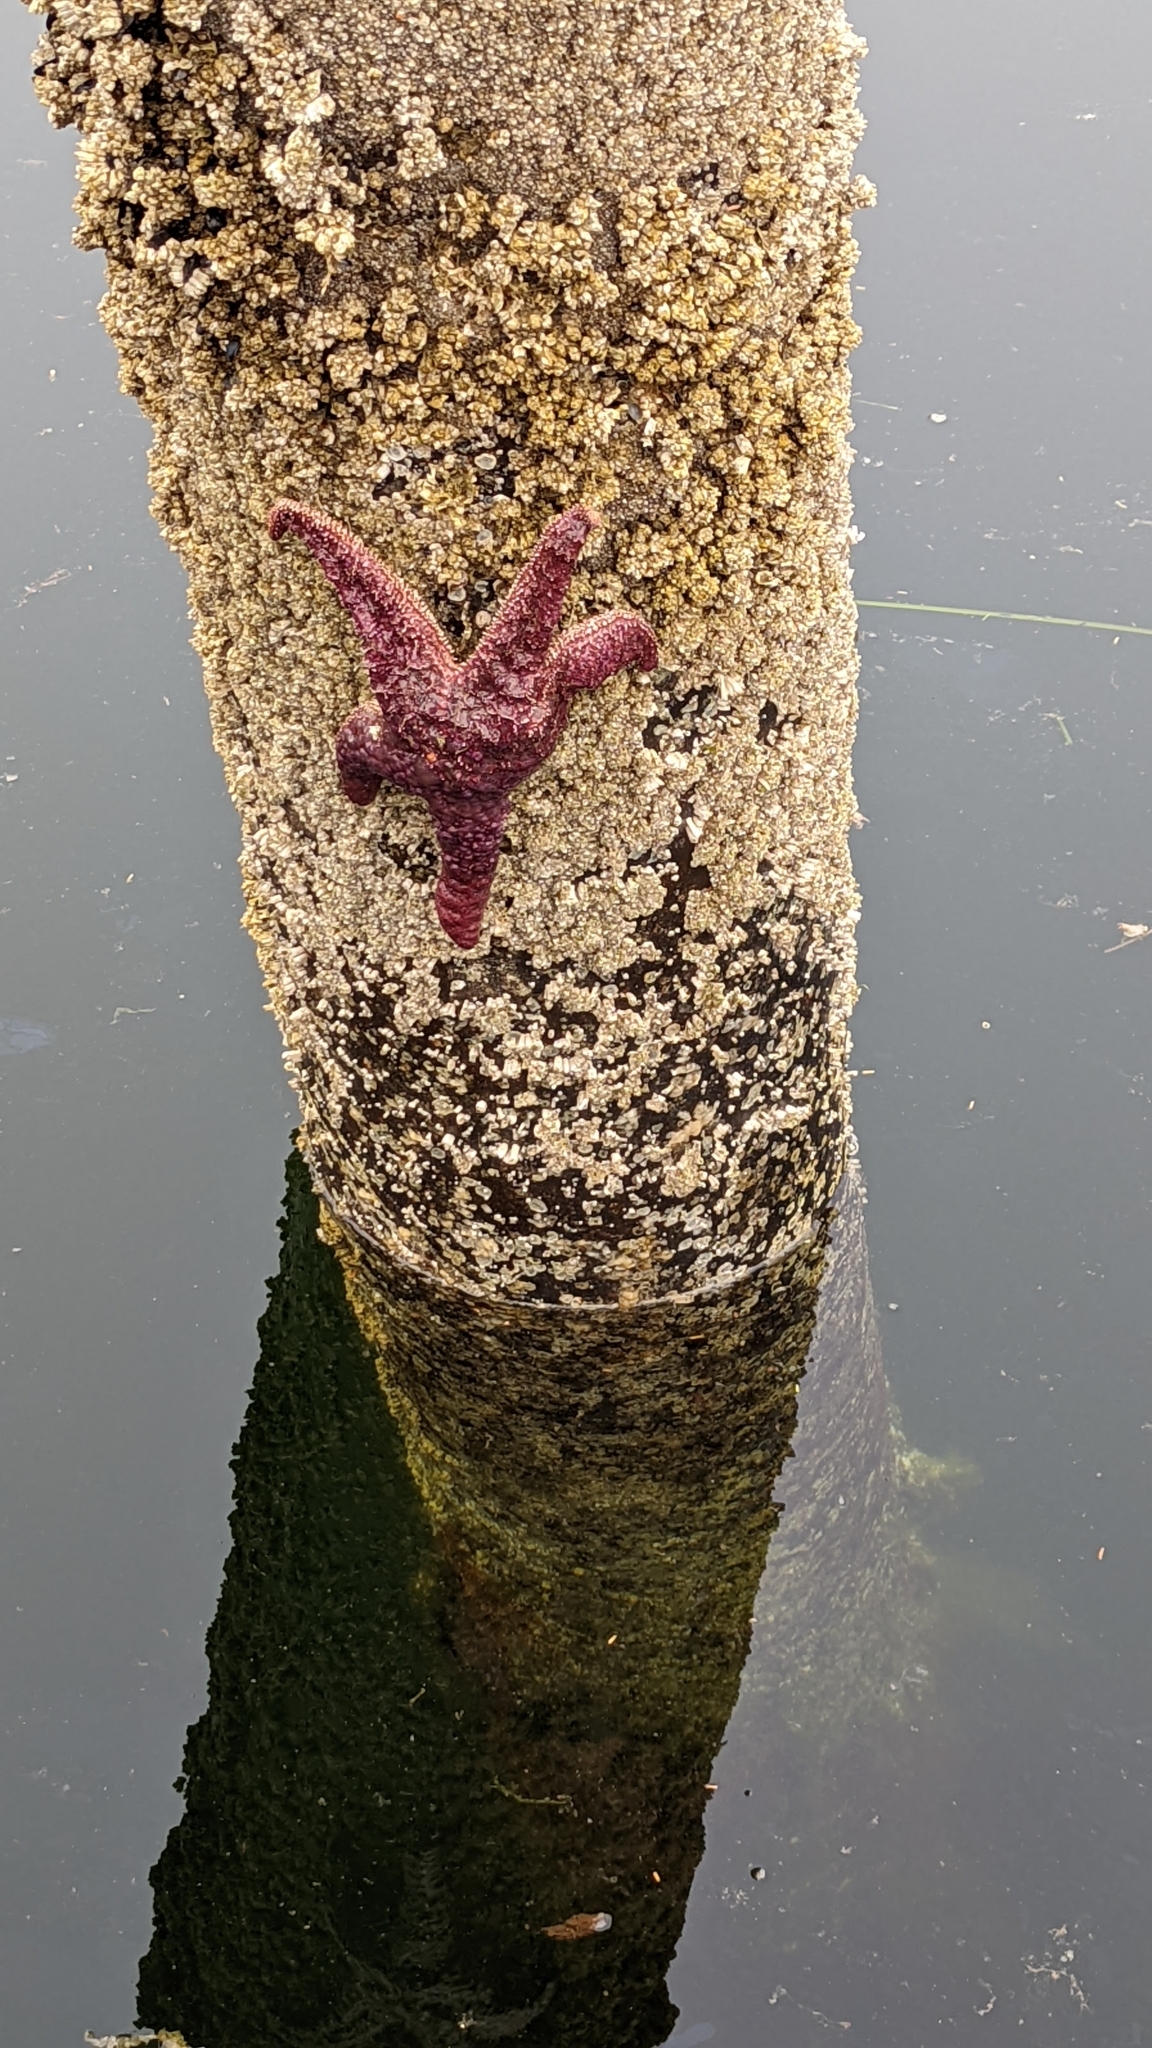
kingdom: Animalia
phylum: Echinodermata
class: Asteroidea
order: Forcipulatida
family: Asteriidae
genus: Pisaster
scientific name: Pisaster ochraceus
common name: Ochre stars
